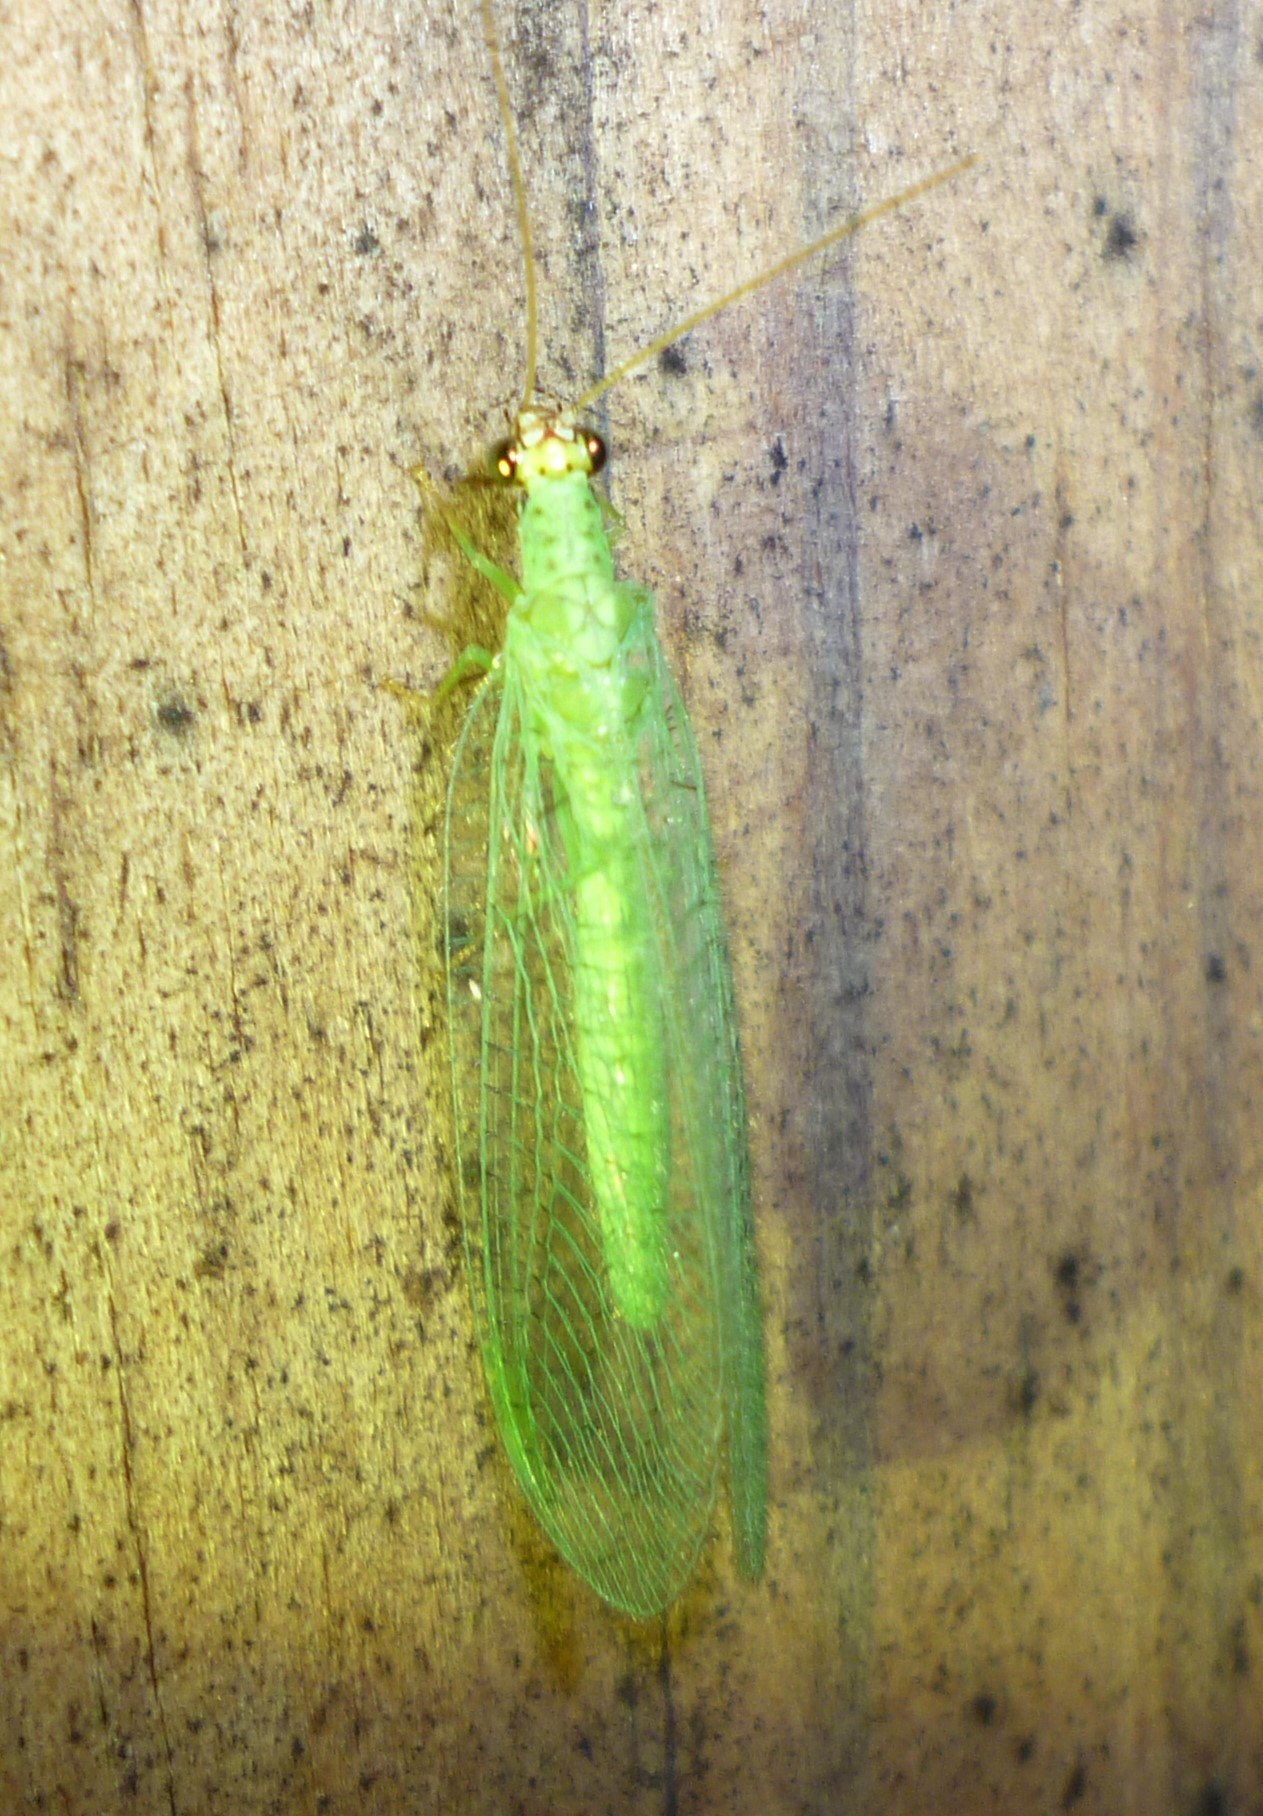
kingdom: Animalia
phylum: Arthropoda
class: Insecta
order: Neuroptera
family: Chrysopidae
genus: Chrysopa
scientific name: Chrysopa oculata
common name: Golden-eyed lacewing
